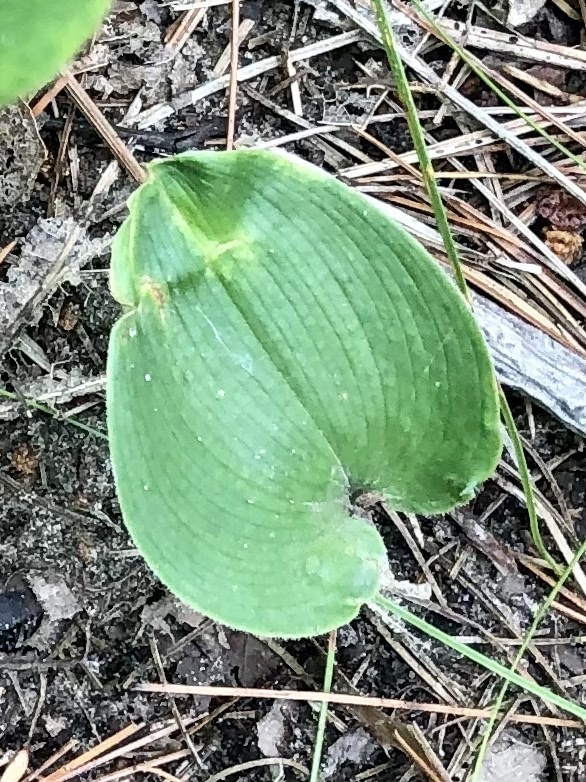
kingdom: Plantae
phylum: Tracheophyta
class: Liliopsida
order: Asparagales
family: Asparagaceae
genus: Maianthemum
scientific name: Maianthemum canadense
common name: False lily-of-the-valley
